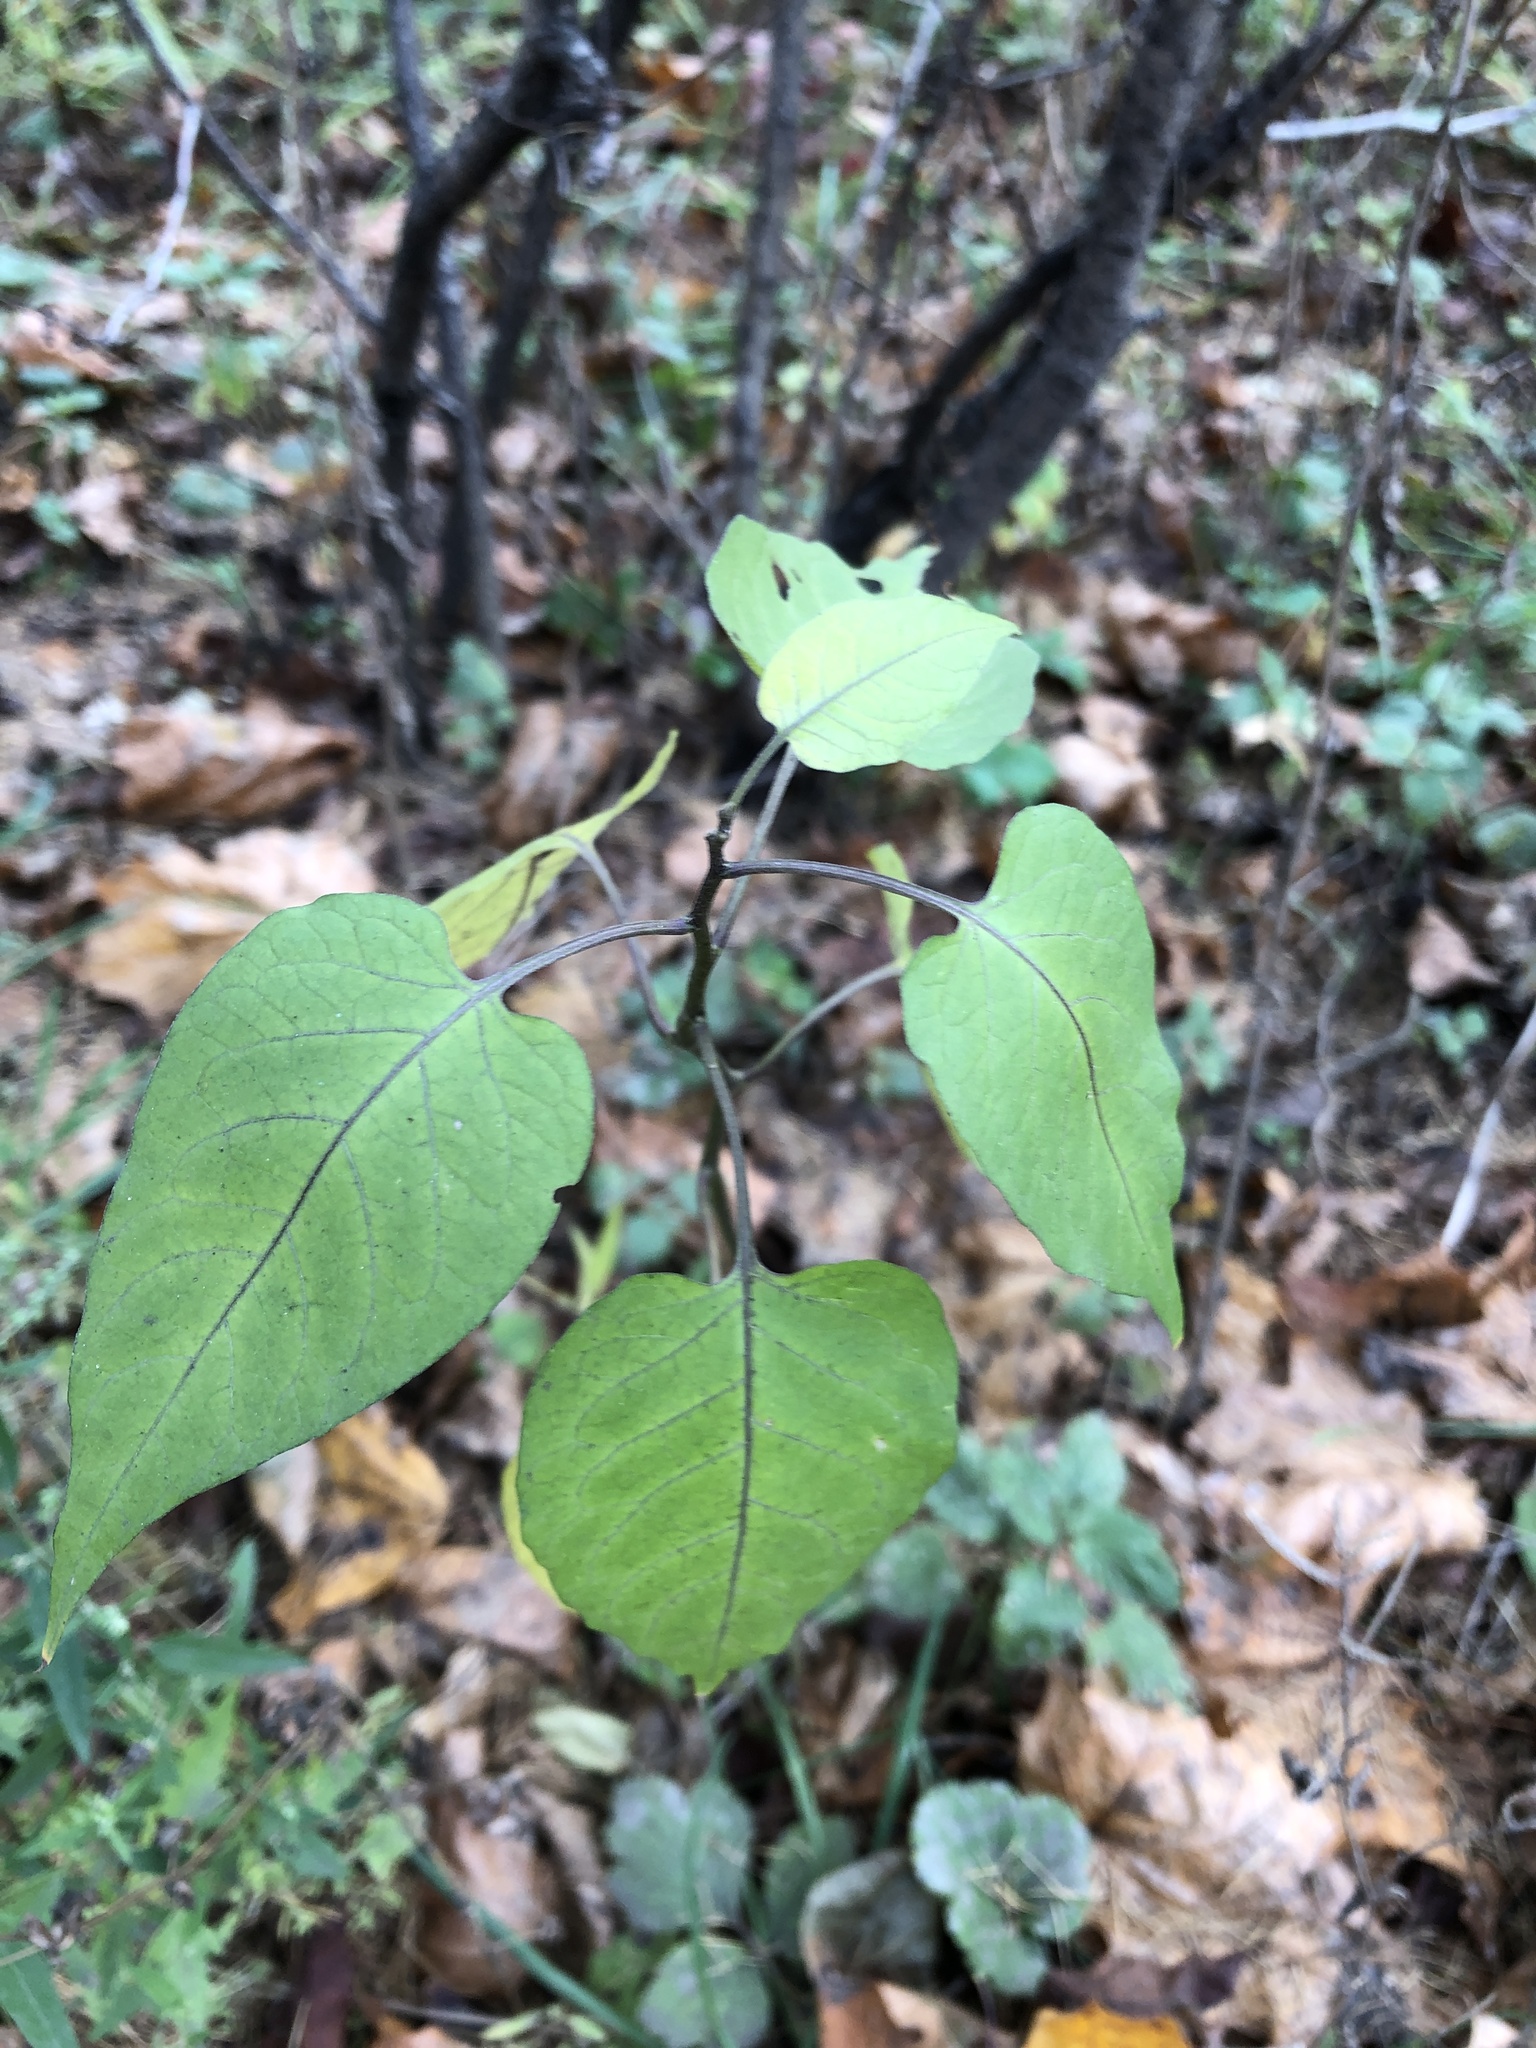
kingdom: Plantae
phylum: Tracheophyta
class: Magnoliopsida
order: Solanales
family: Solanaceae
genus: Solanum
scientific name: Solanum dulcamara
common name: Climbing nightshade
